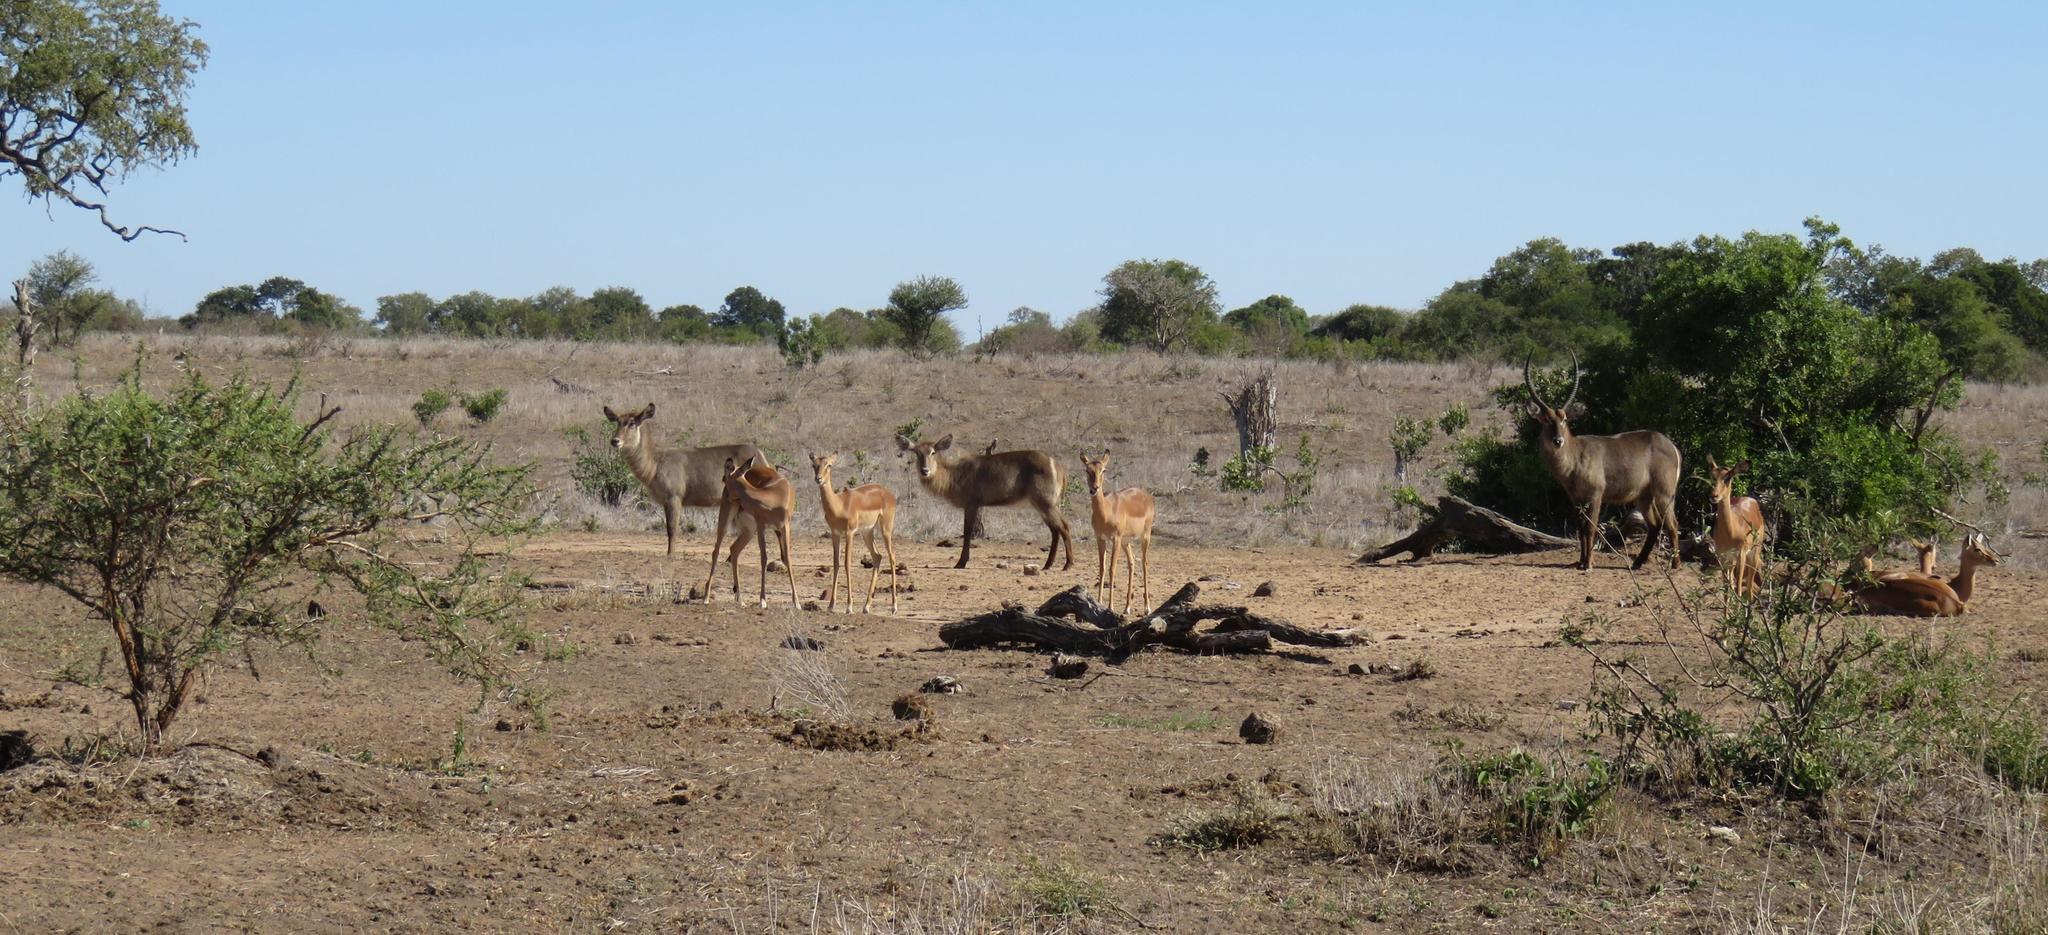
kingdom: Animalia
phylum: Chordata
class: Mammalia
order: Artiodactyla
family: Bovidae
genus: Kobus
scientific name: Kobus ellipsiprymnus
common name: Waterbuck
